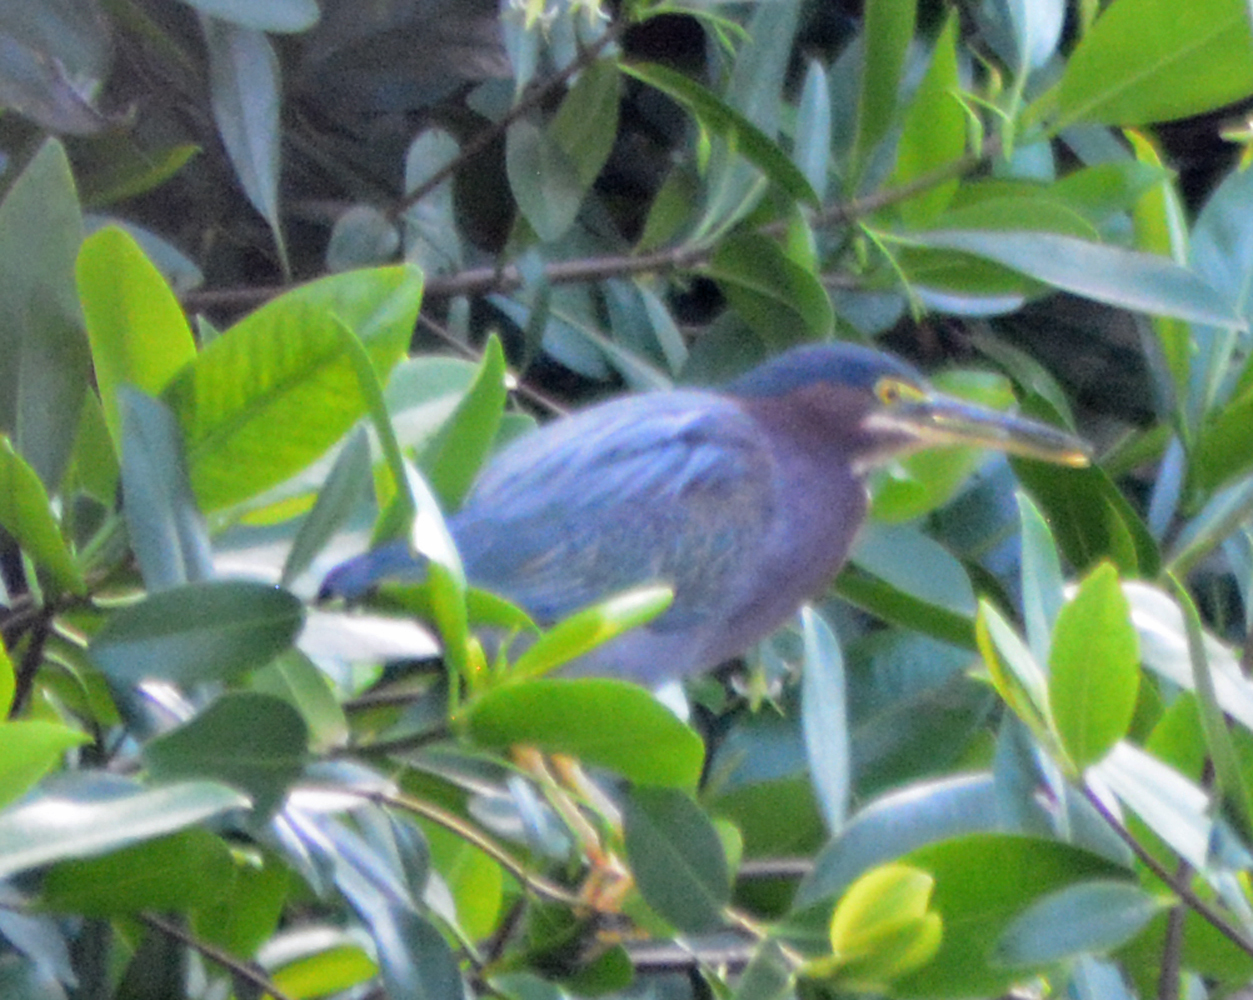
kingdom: Animalia
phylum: Chordata
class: Aves
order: Pelecaniformes
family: Ardeidae
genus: Butorides
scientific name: Butorides virescens
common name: Green heron
